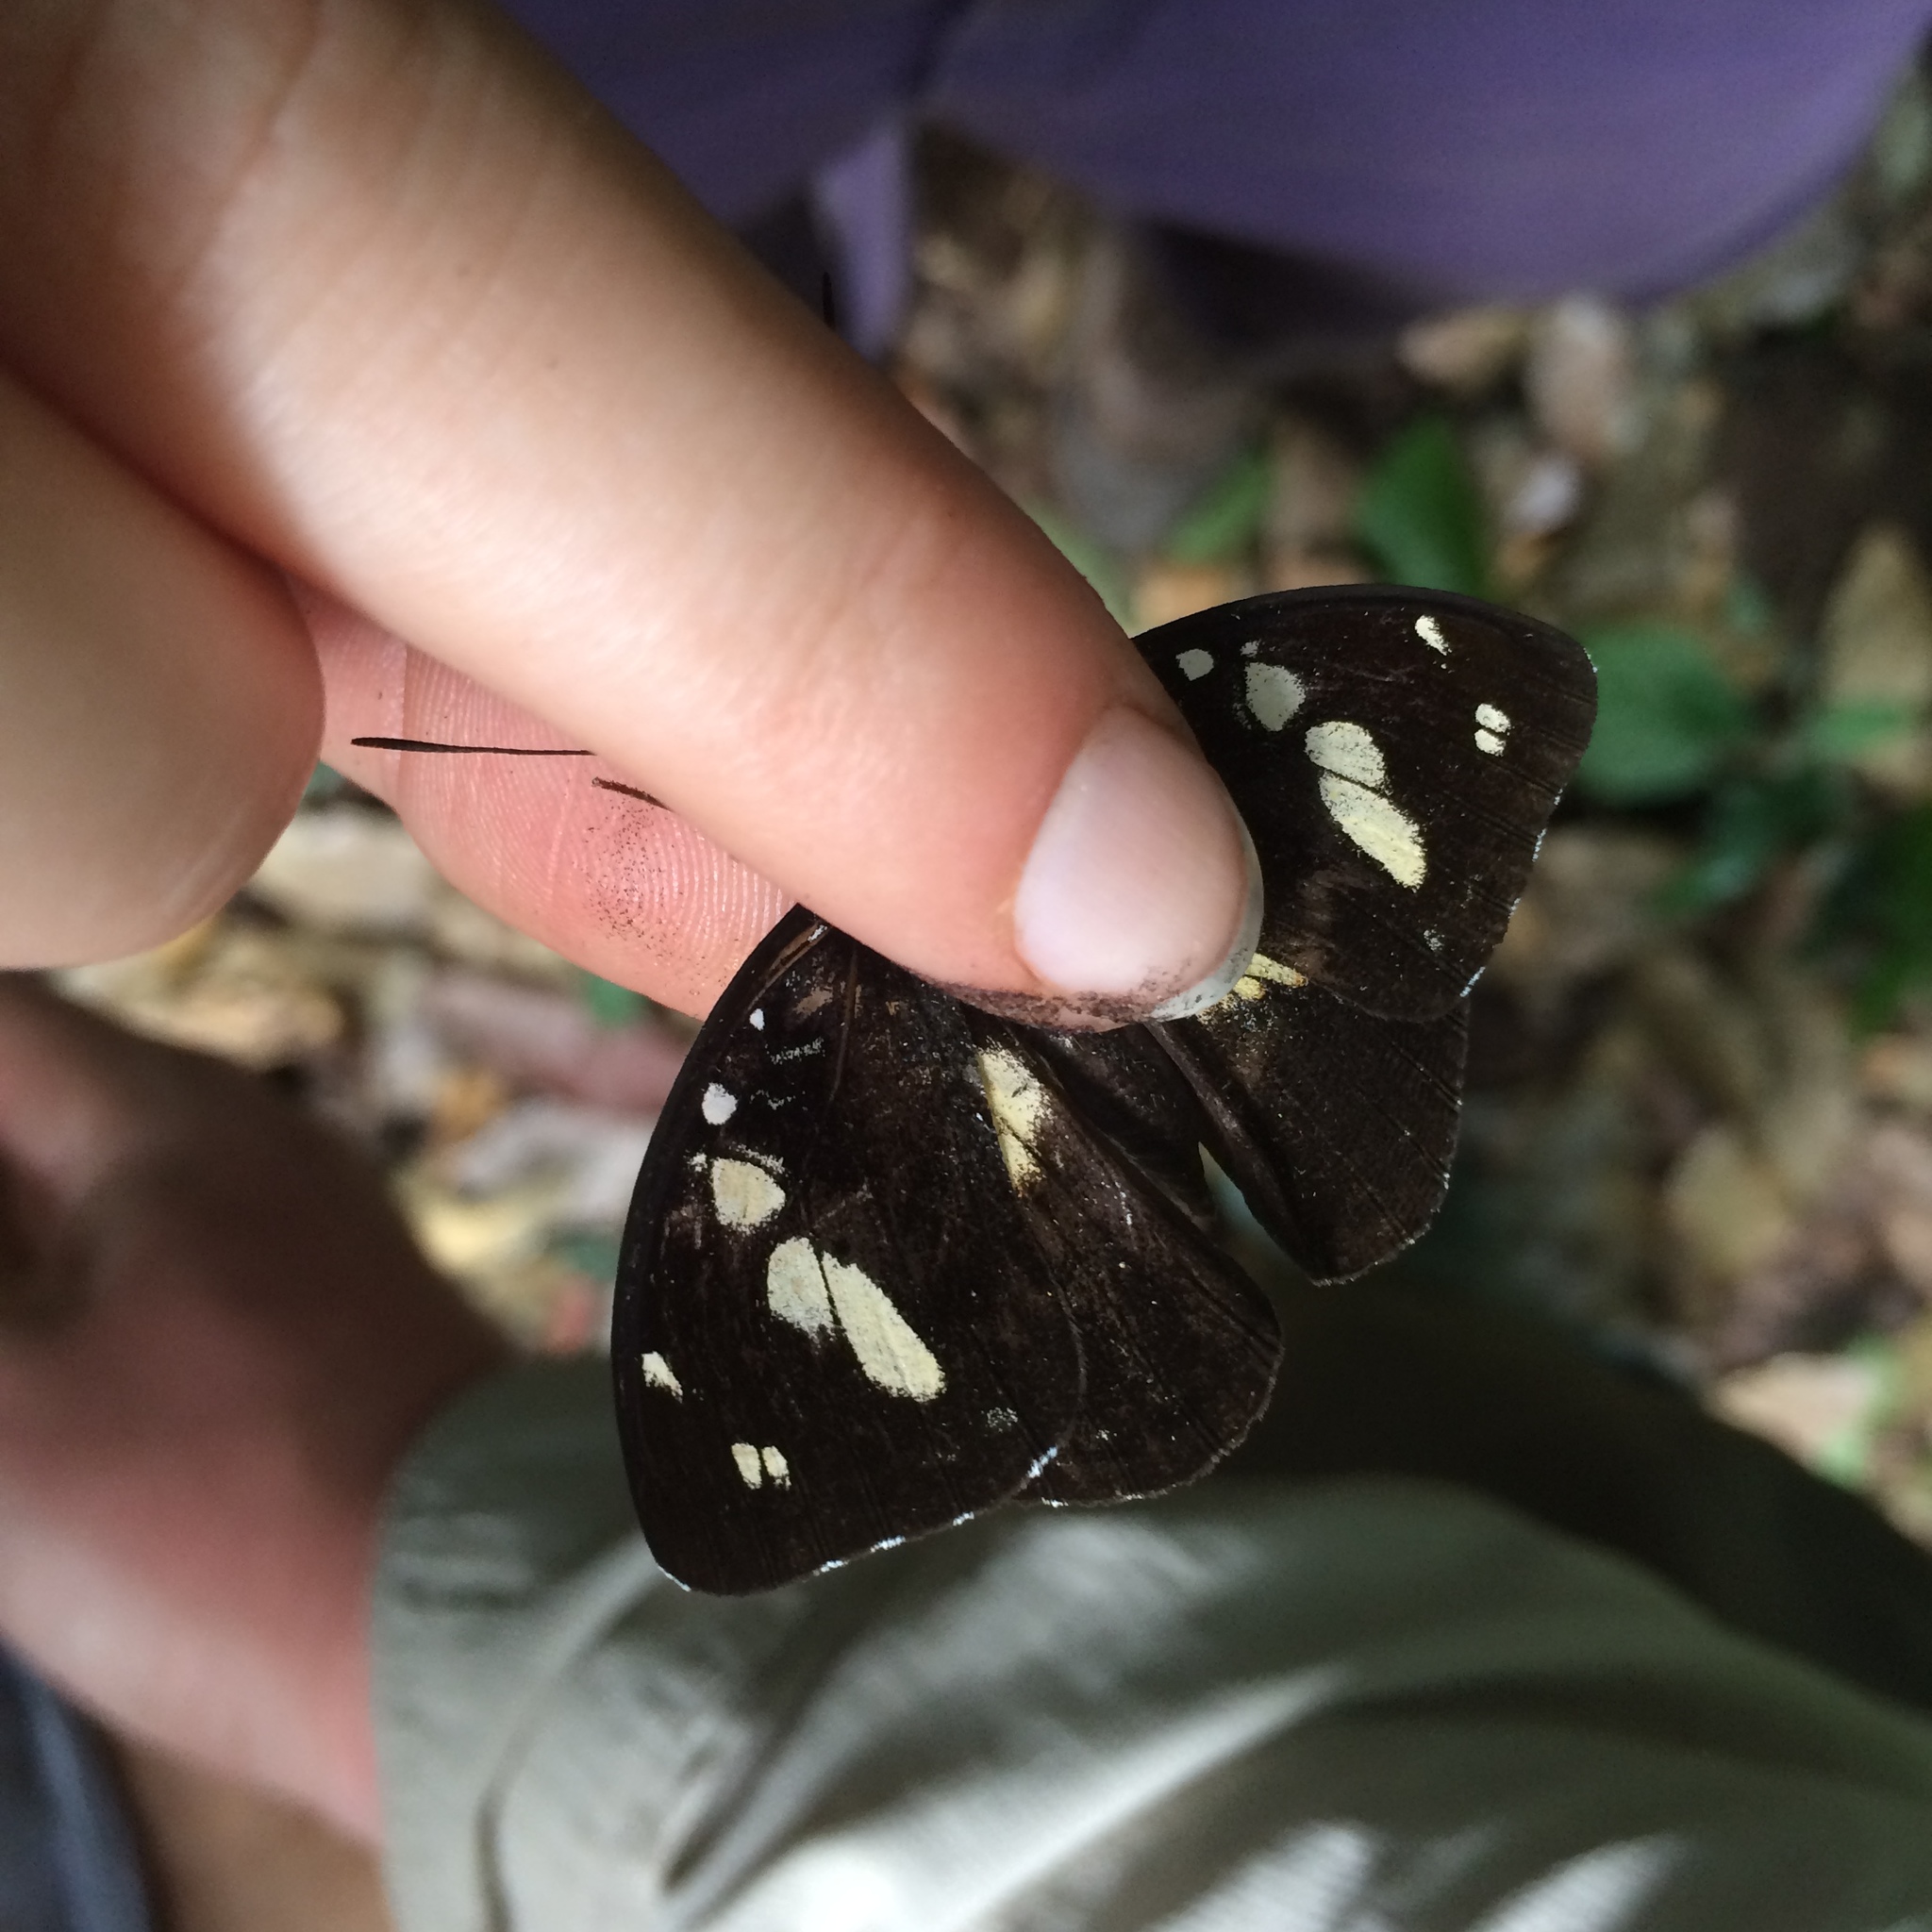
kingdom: Animalia
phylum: Arthropoda
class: Insecta
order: Lepidoptera
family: Nymphalidae
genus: Aterica
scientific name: Aterica galene
